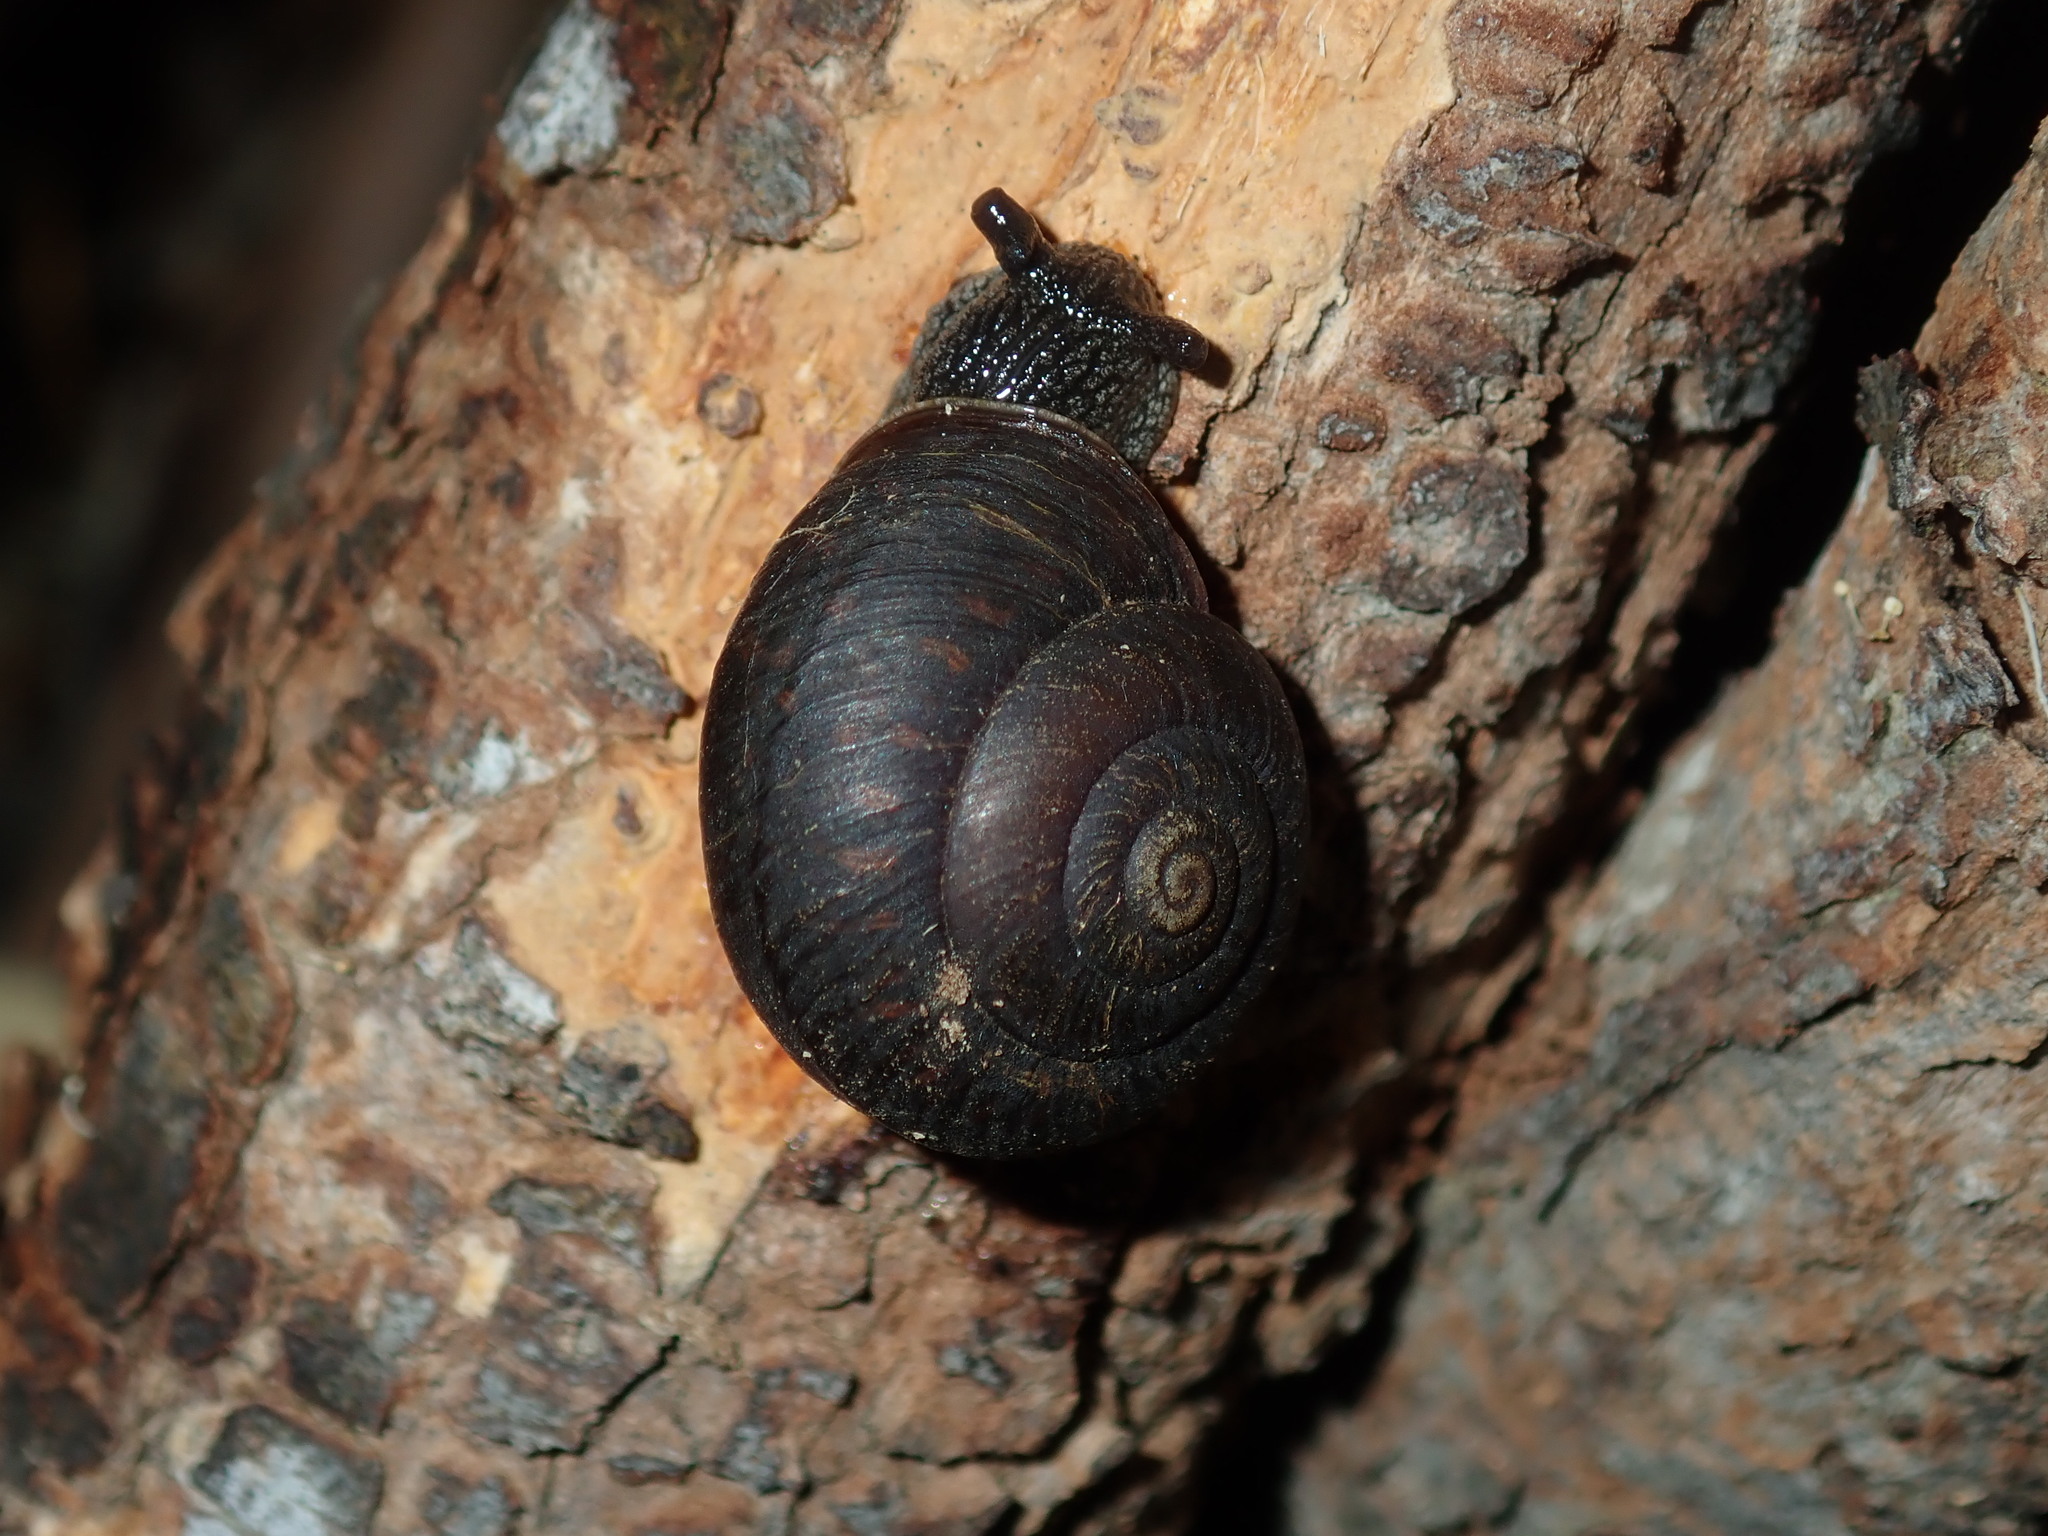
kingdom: Animalia
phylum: Mollusca
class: Gastropoda
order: Stylommatophora
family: Camaenidae
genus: Sauroconcha
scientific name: Sauroconcha sheai
